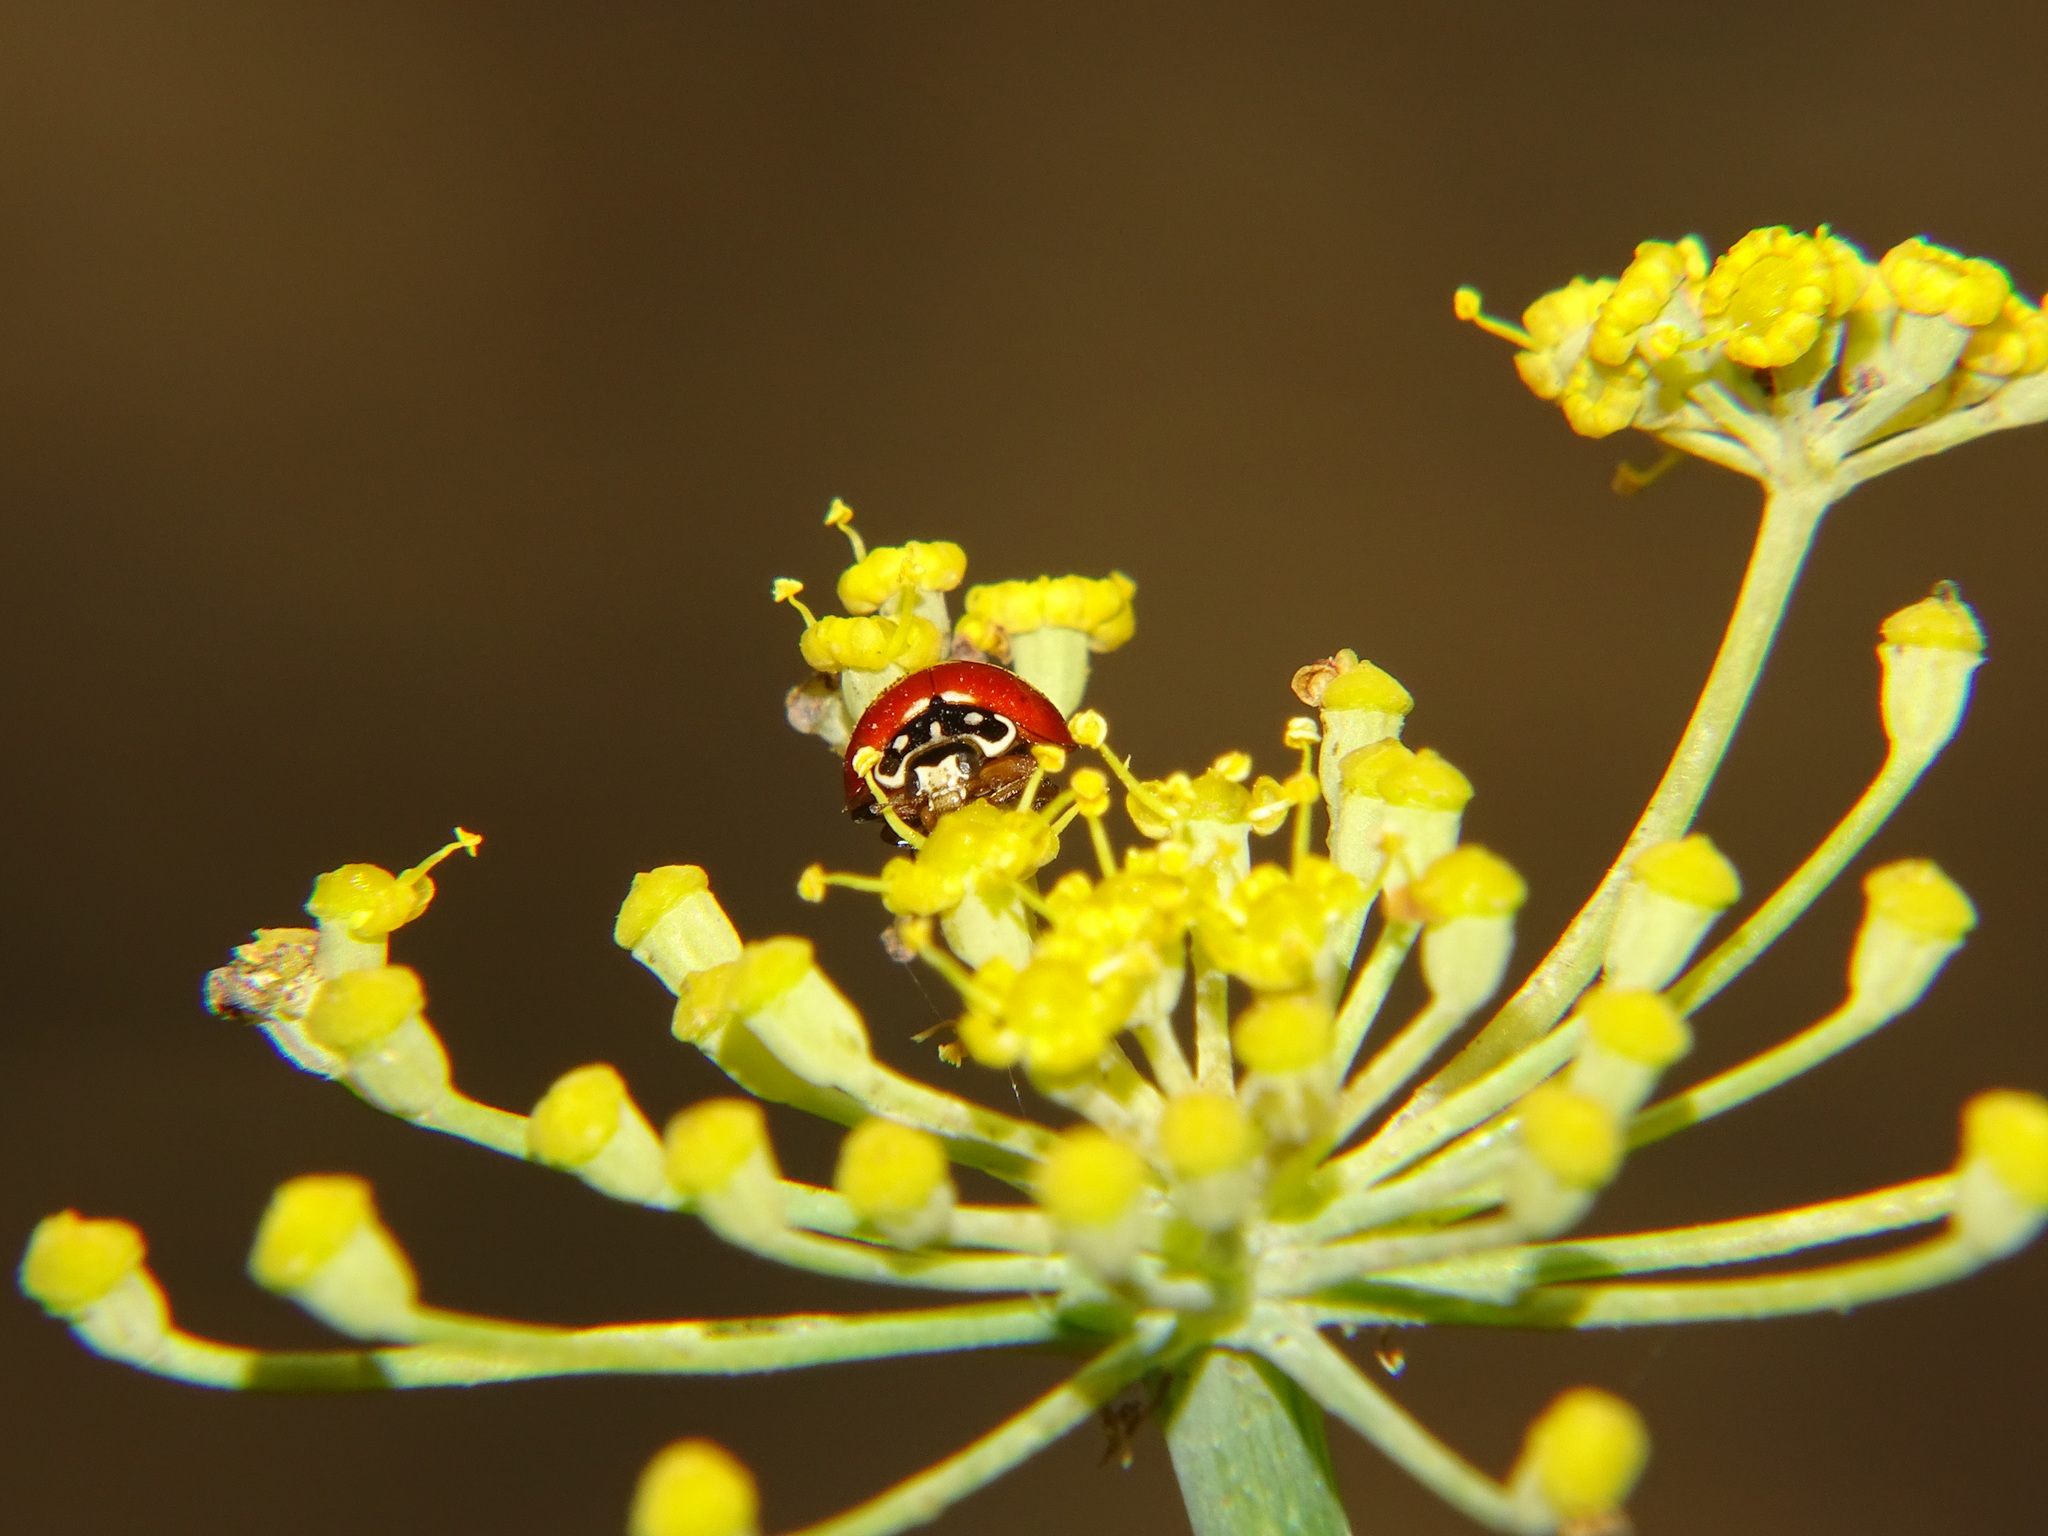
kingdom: Animalia
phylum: Arthropoda
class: Insecta
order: Coleoptera
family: Coccinellidae
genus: Cycloneda
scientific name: Cycloneda sanguinea
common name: Ladybird beetle
